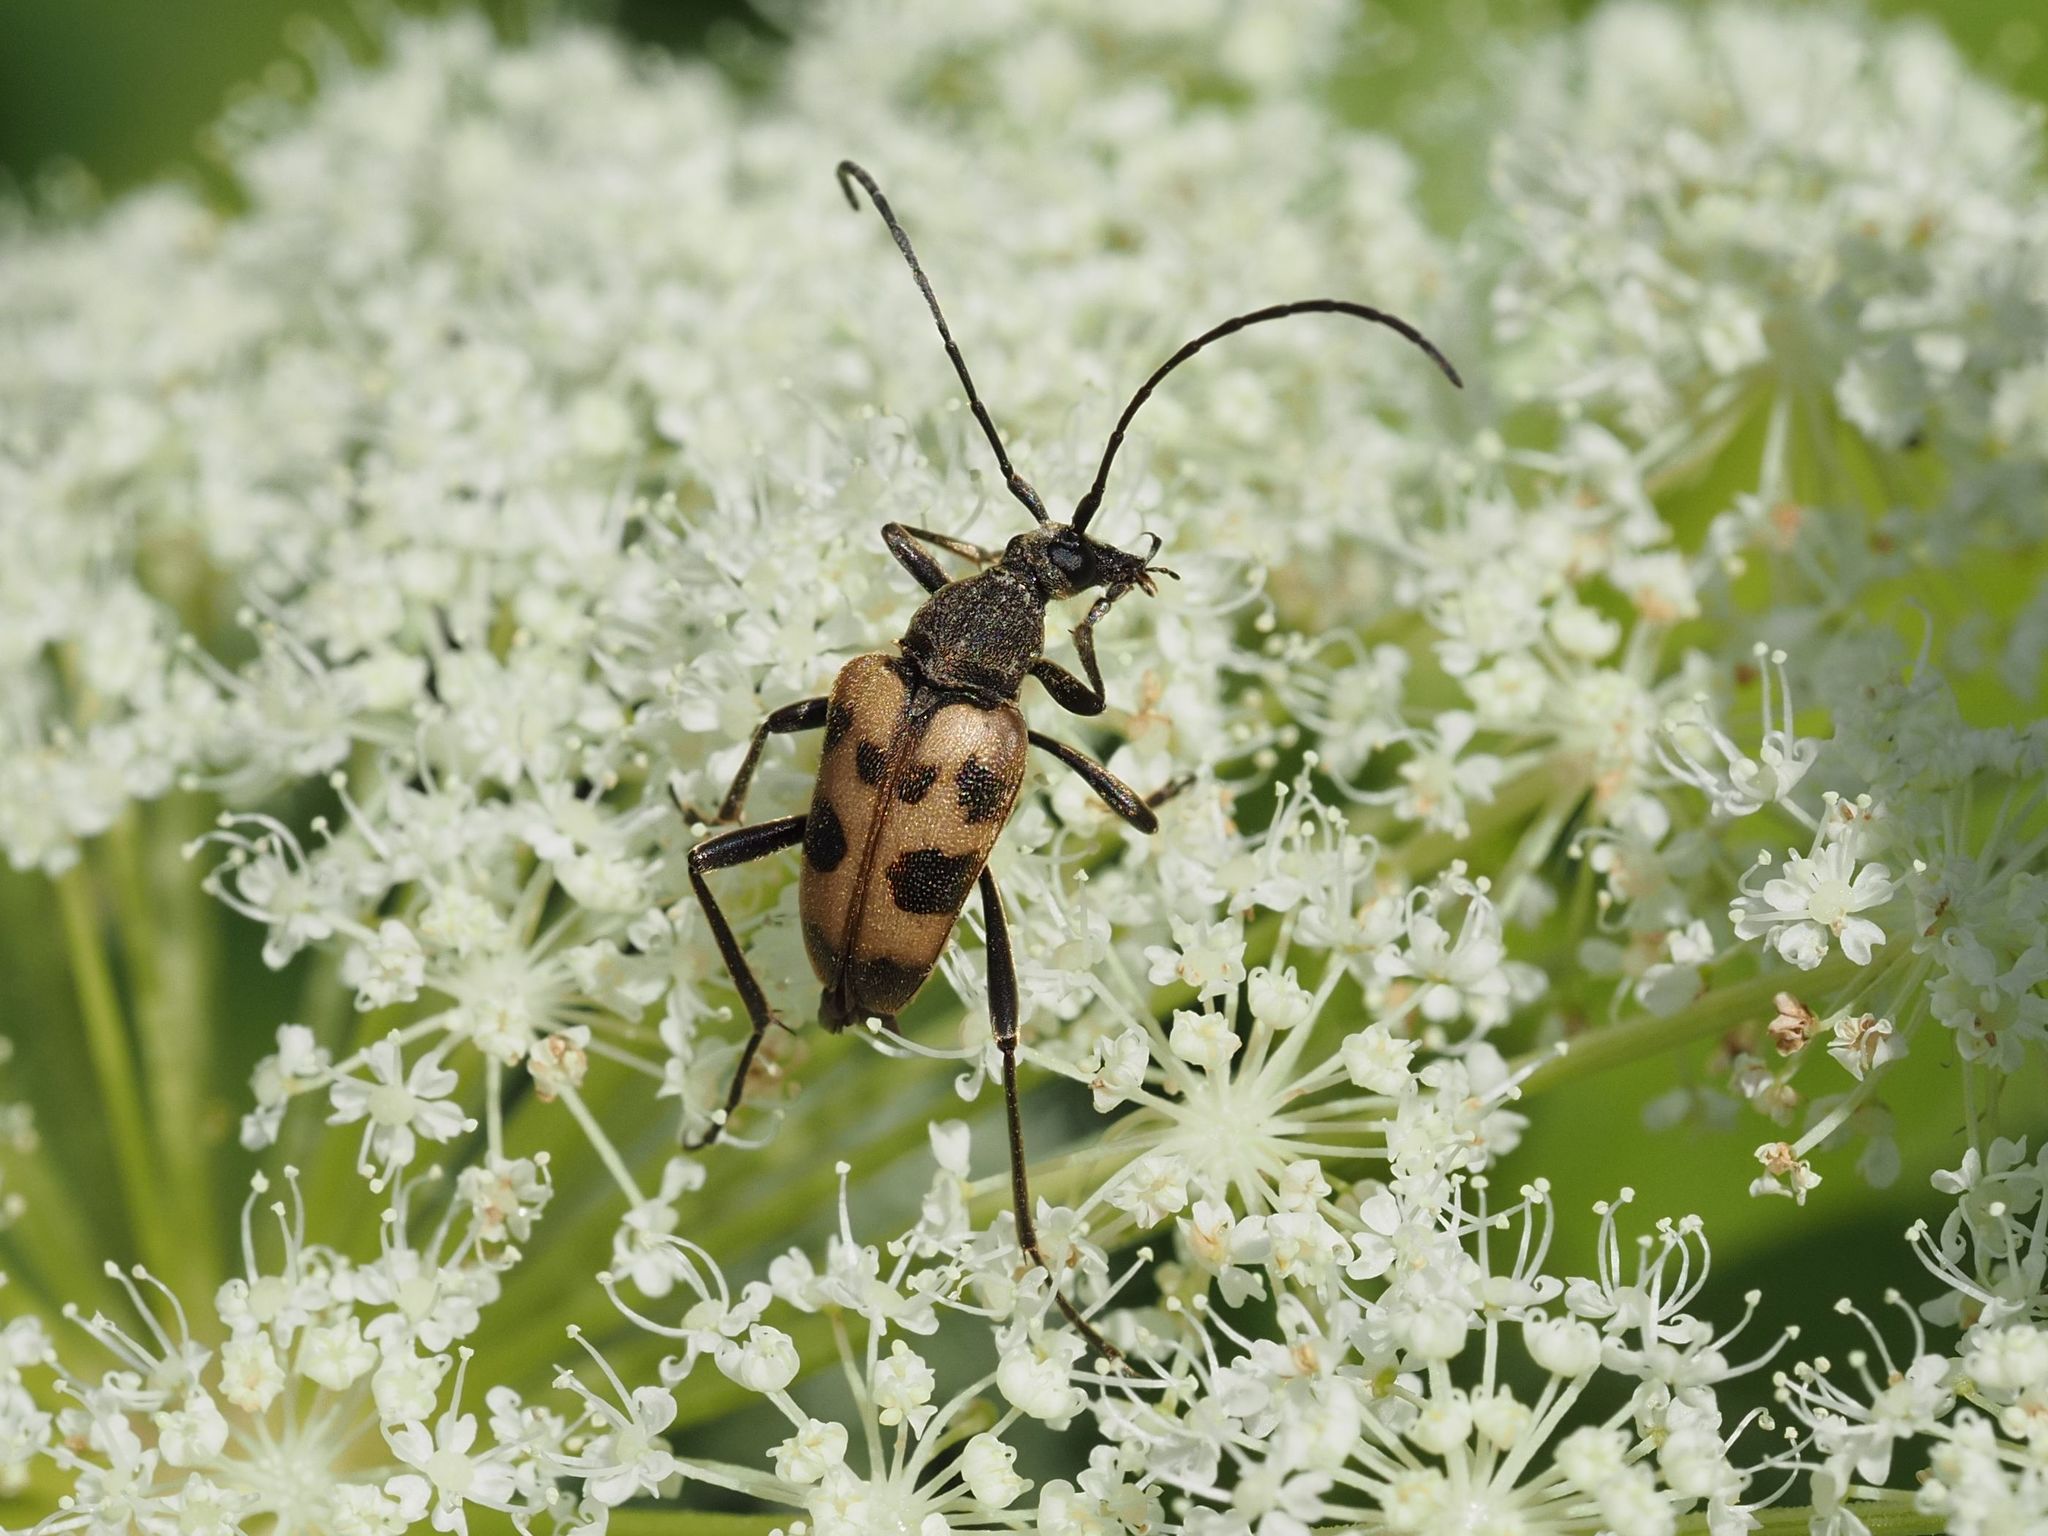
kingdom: Animalia
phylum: Arthropoda
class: Insecta
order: Coleoptera
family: Cerambycidae
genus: Pachytodes
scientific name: Pachytodes cerambyciformis
